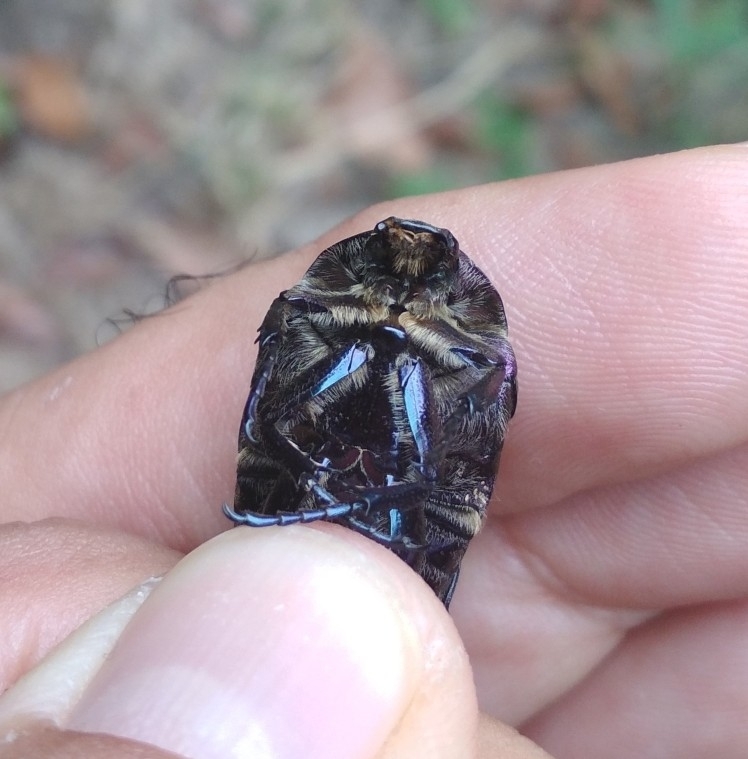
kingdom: Animalia
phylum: Arthropoda
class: Insecta
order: Coleoptera
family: Scarabaeidae
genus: Protaetia
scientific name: Protaetia cuprea
